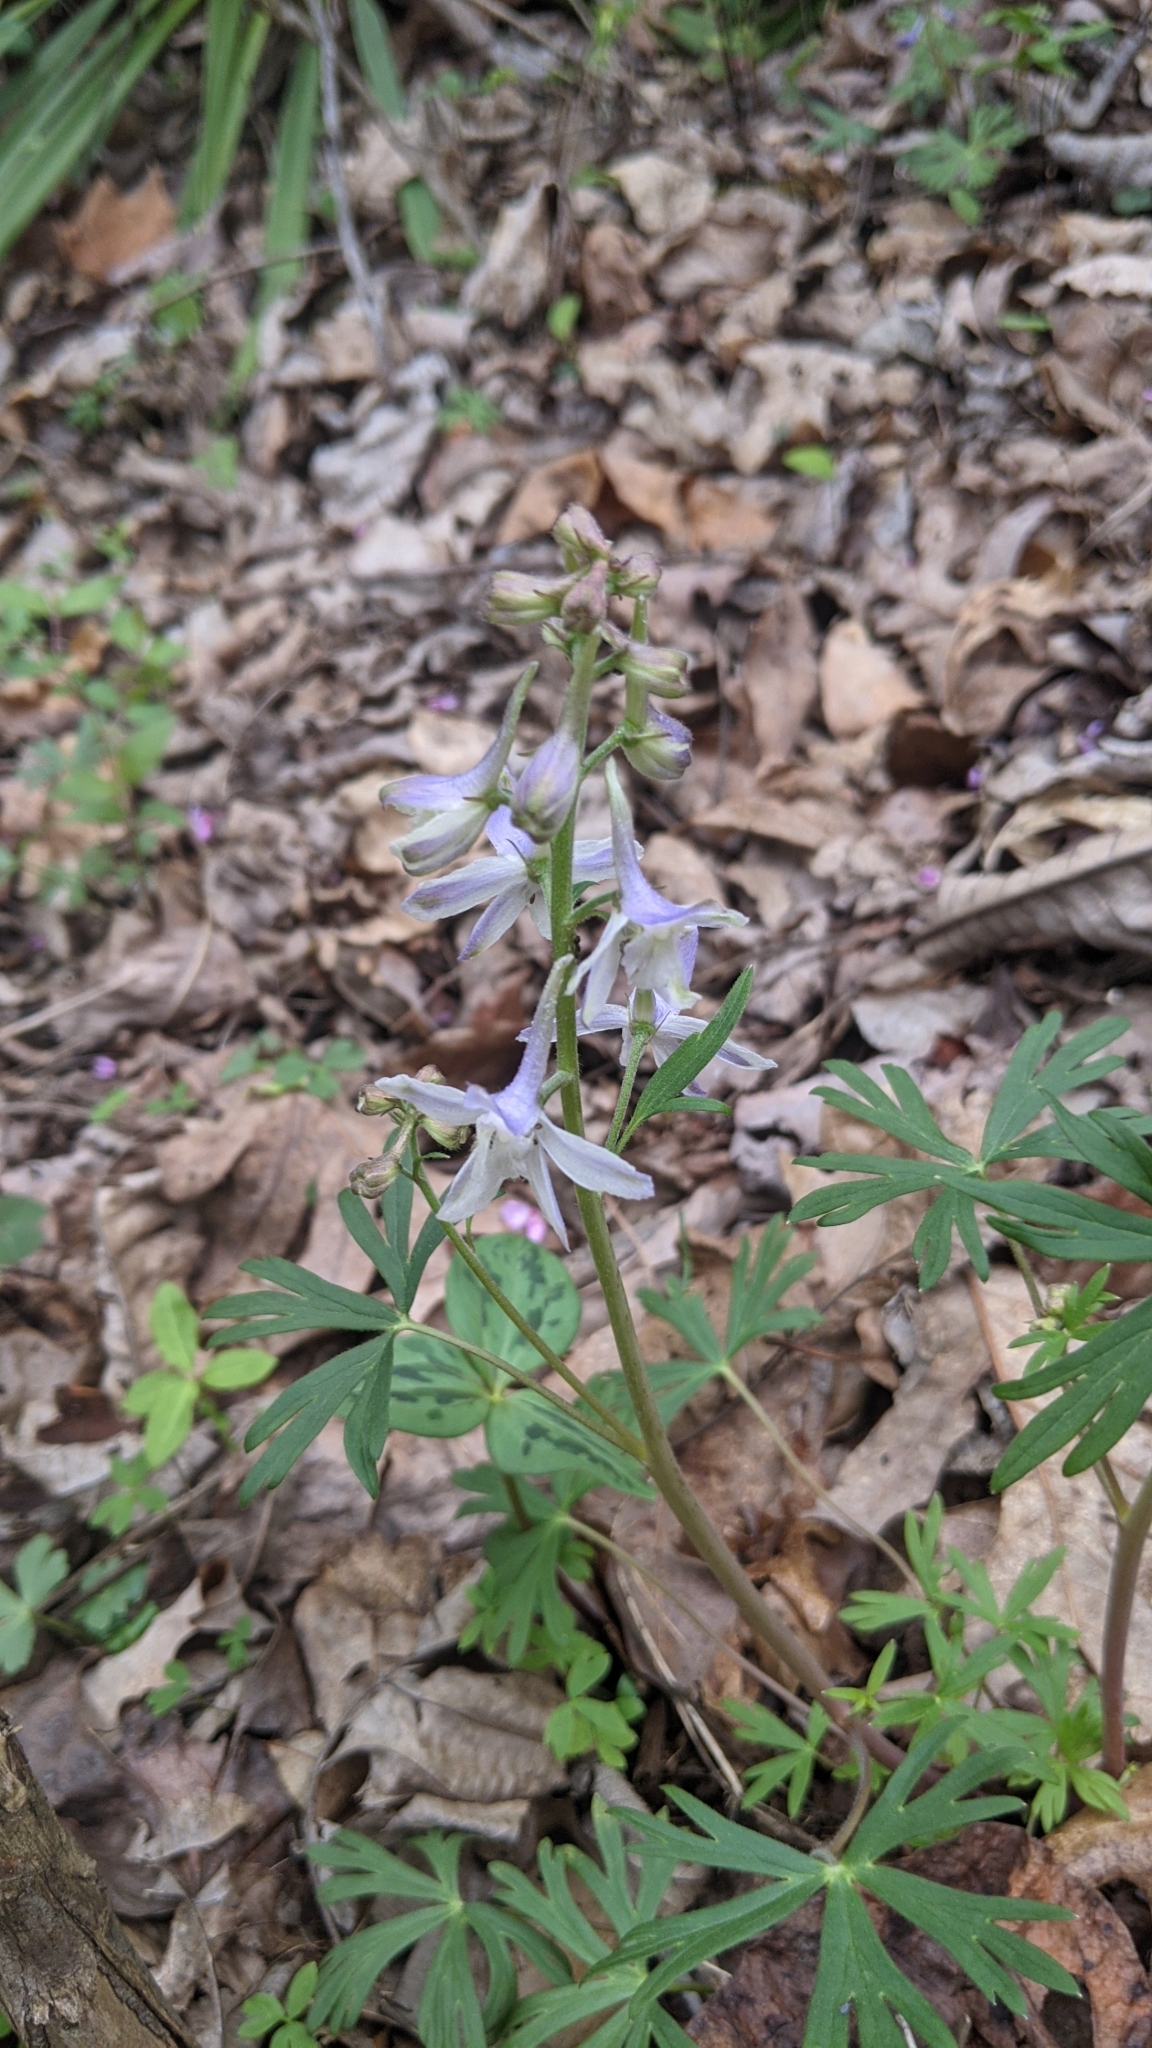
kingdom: Plantae
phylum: Tracheophyta
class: Magnoliopsida
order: Ranunculales
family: Ranunculaceae
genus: Delphinium
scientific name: Delphinium tricorne
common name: Dwarf larkspur
